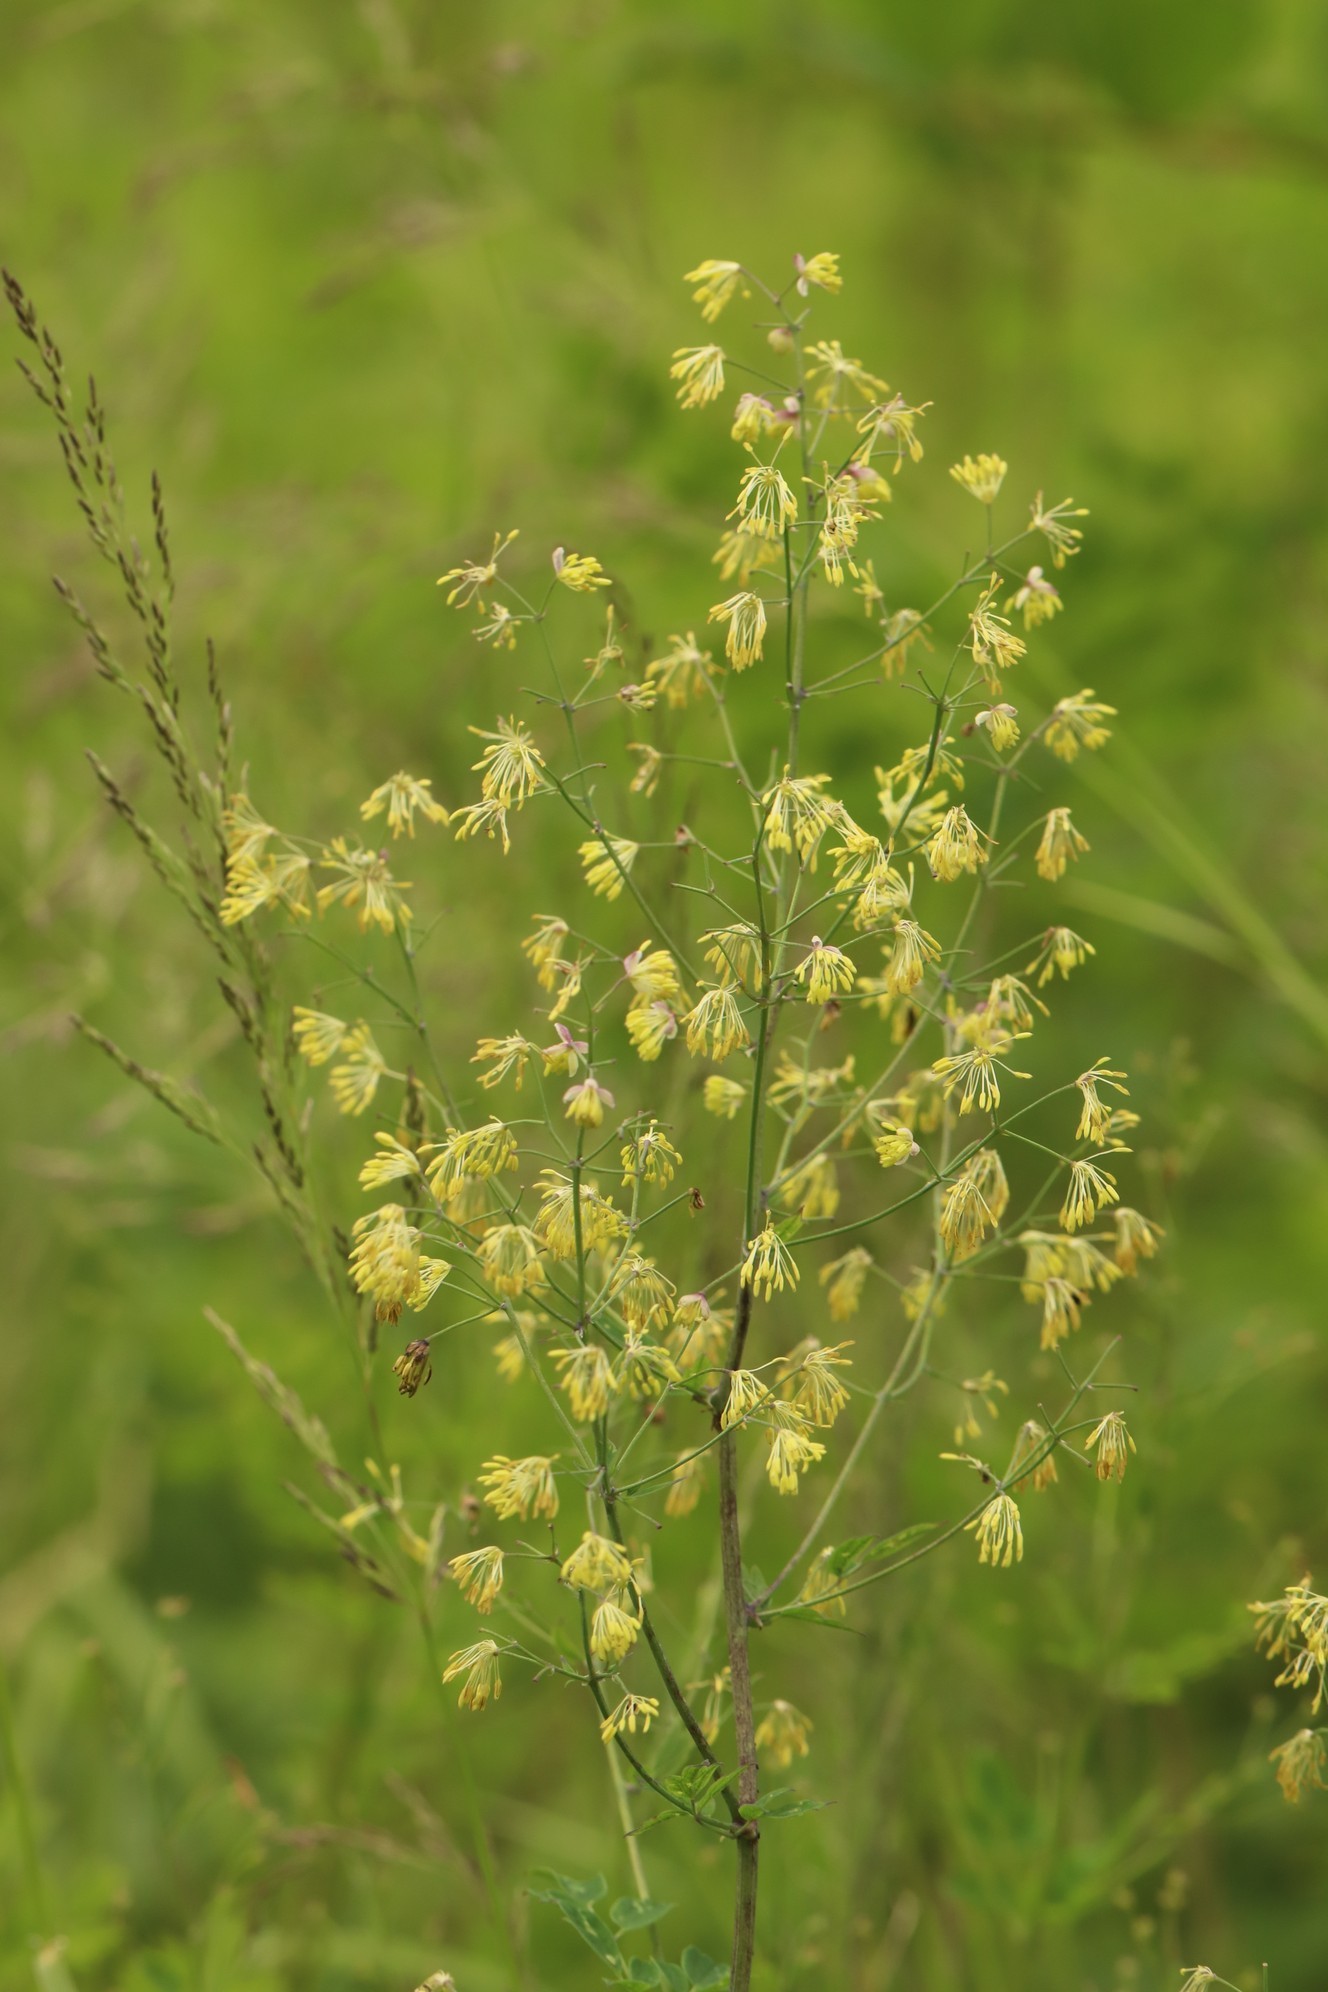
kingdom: Plantae
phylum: Tracheophyta
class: Magnoliopsida
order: Ranunculales
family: Ranunculaceae
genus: Thalictrum
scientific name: Thalictrum minus
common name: Lesser meadow-rue
